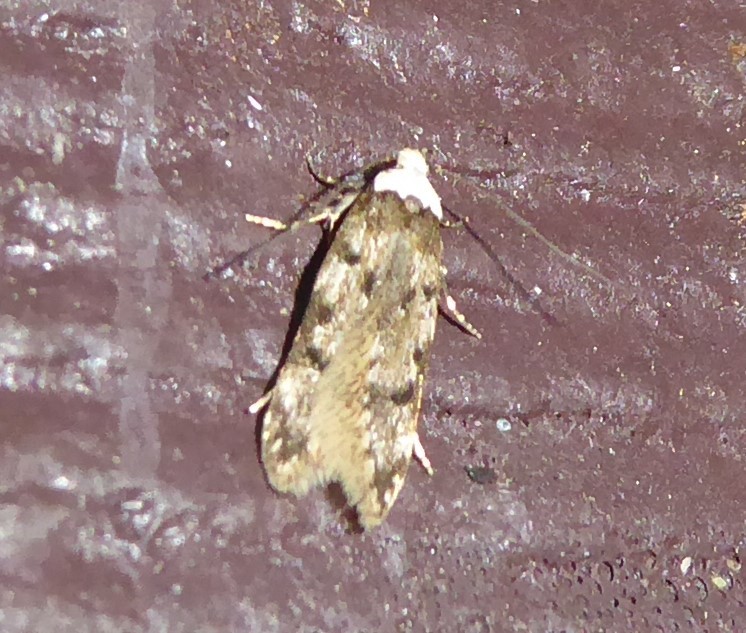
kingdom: Animalia
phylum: Arthropoda
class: Insecta
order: Lepidoptera
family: Oecophoridae
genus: Endrosis
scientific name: Endrosis sarcitrella
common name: White-shouldered house moth
